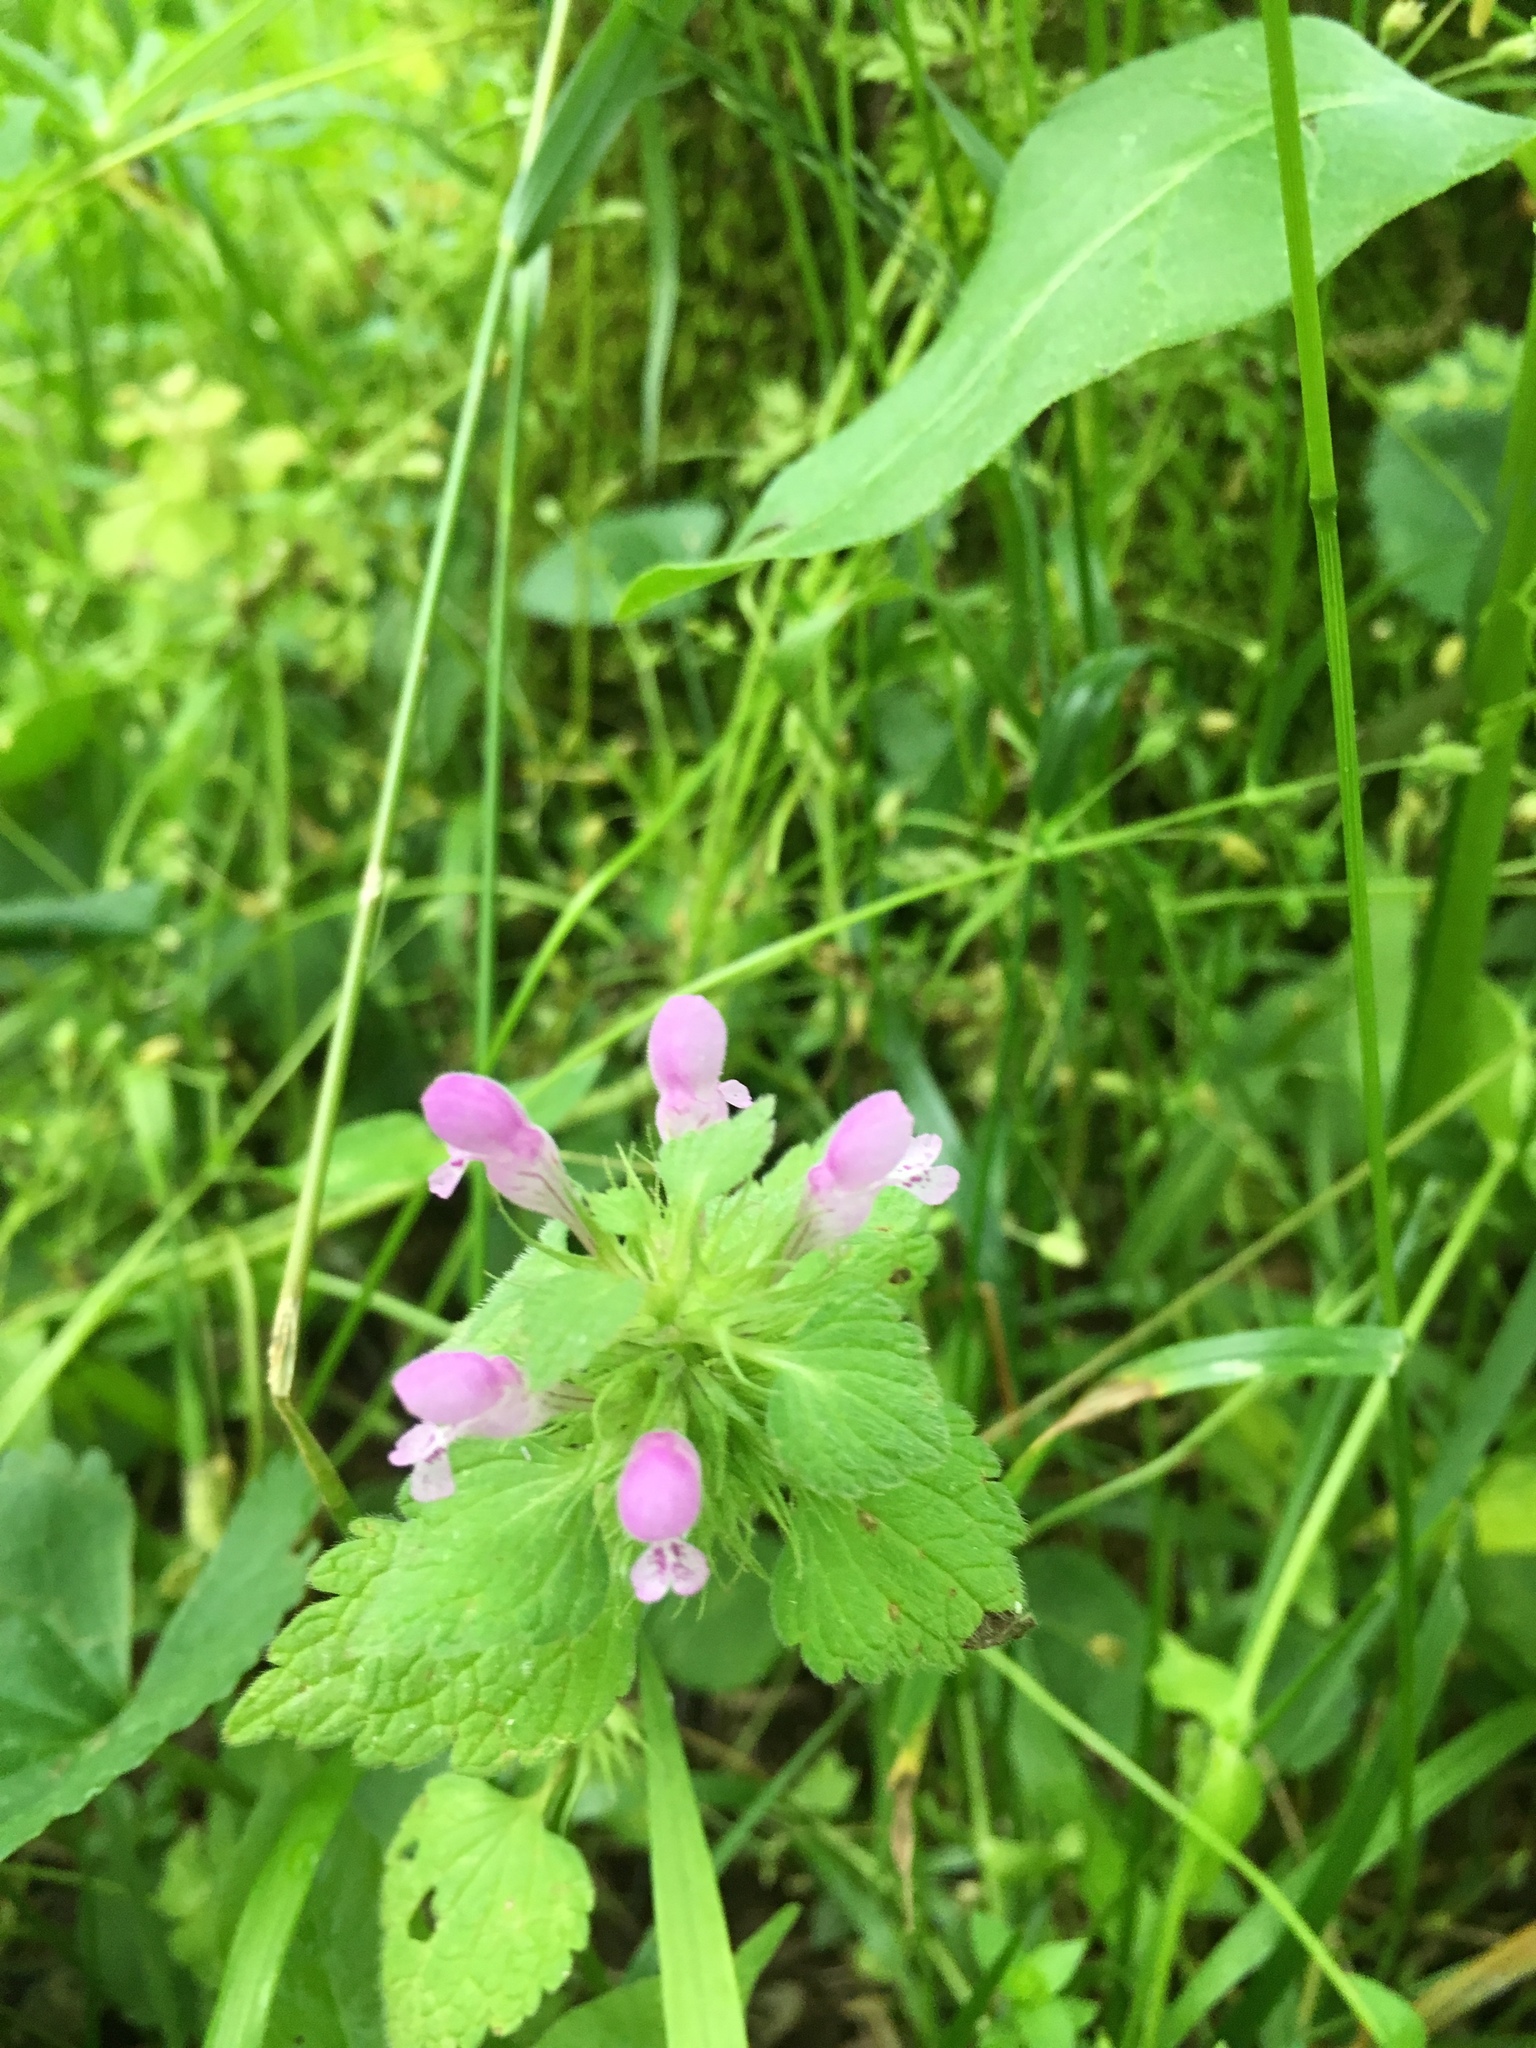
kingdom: Plantae
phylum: Tracheophyta
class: Magnoliopsida
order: Lamiales
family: Lamiaceae
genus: Lamium
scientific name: Lamium purpureum
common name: Red dead-nettle
